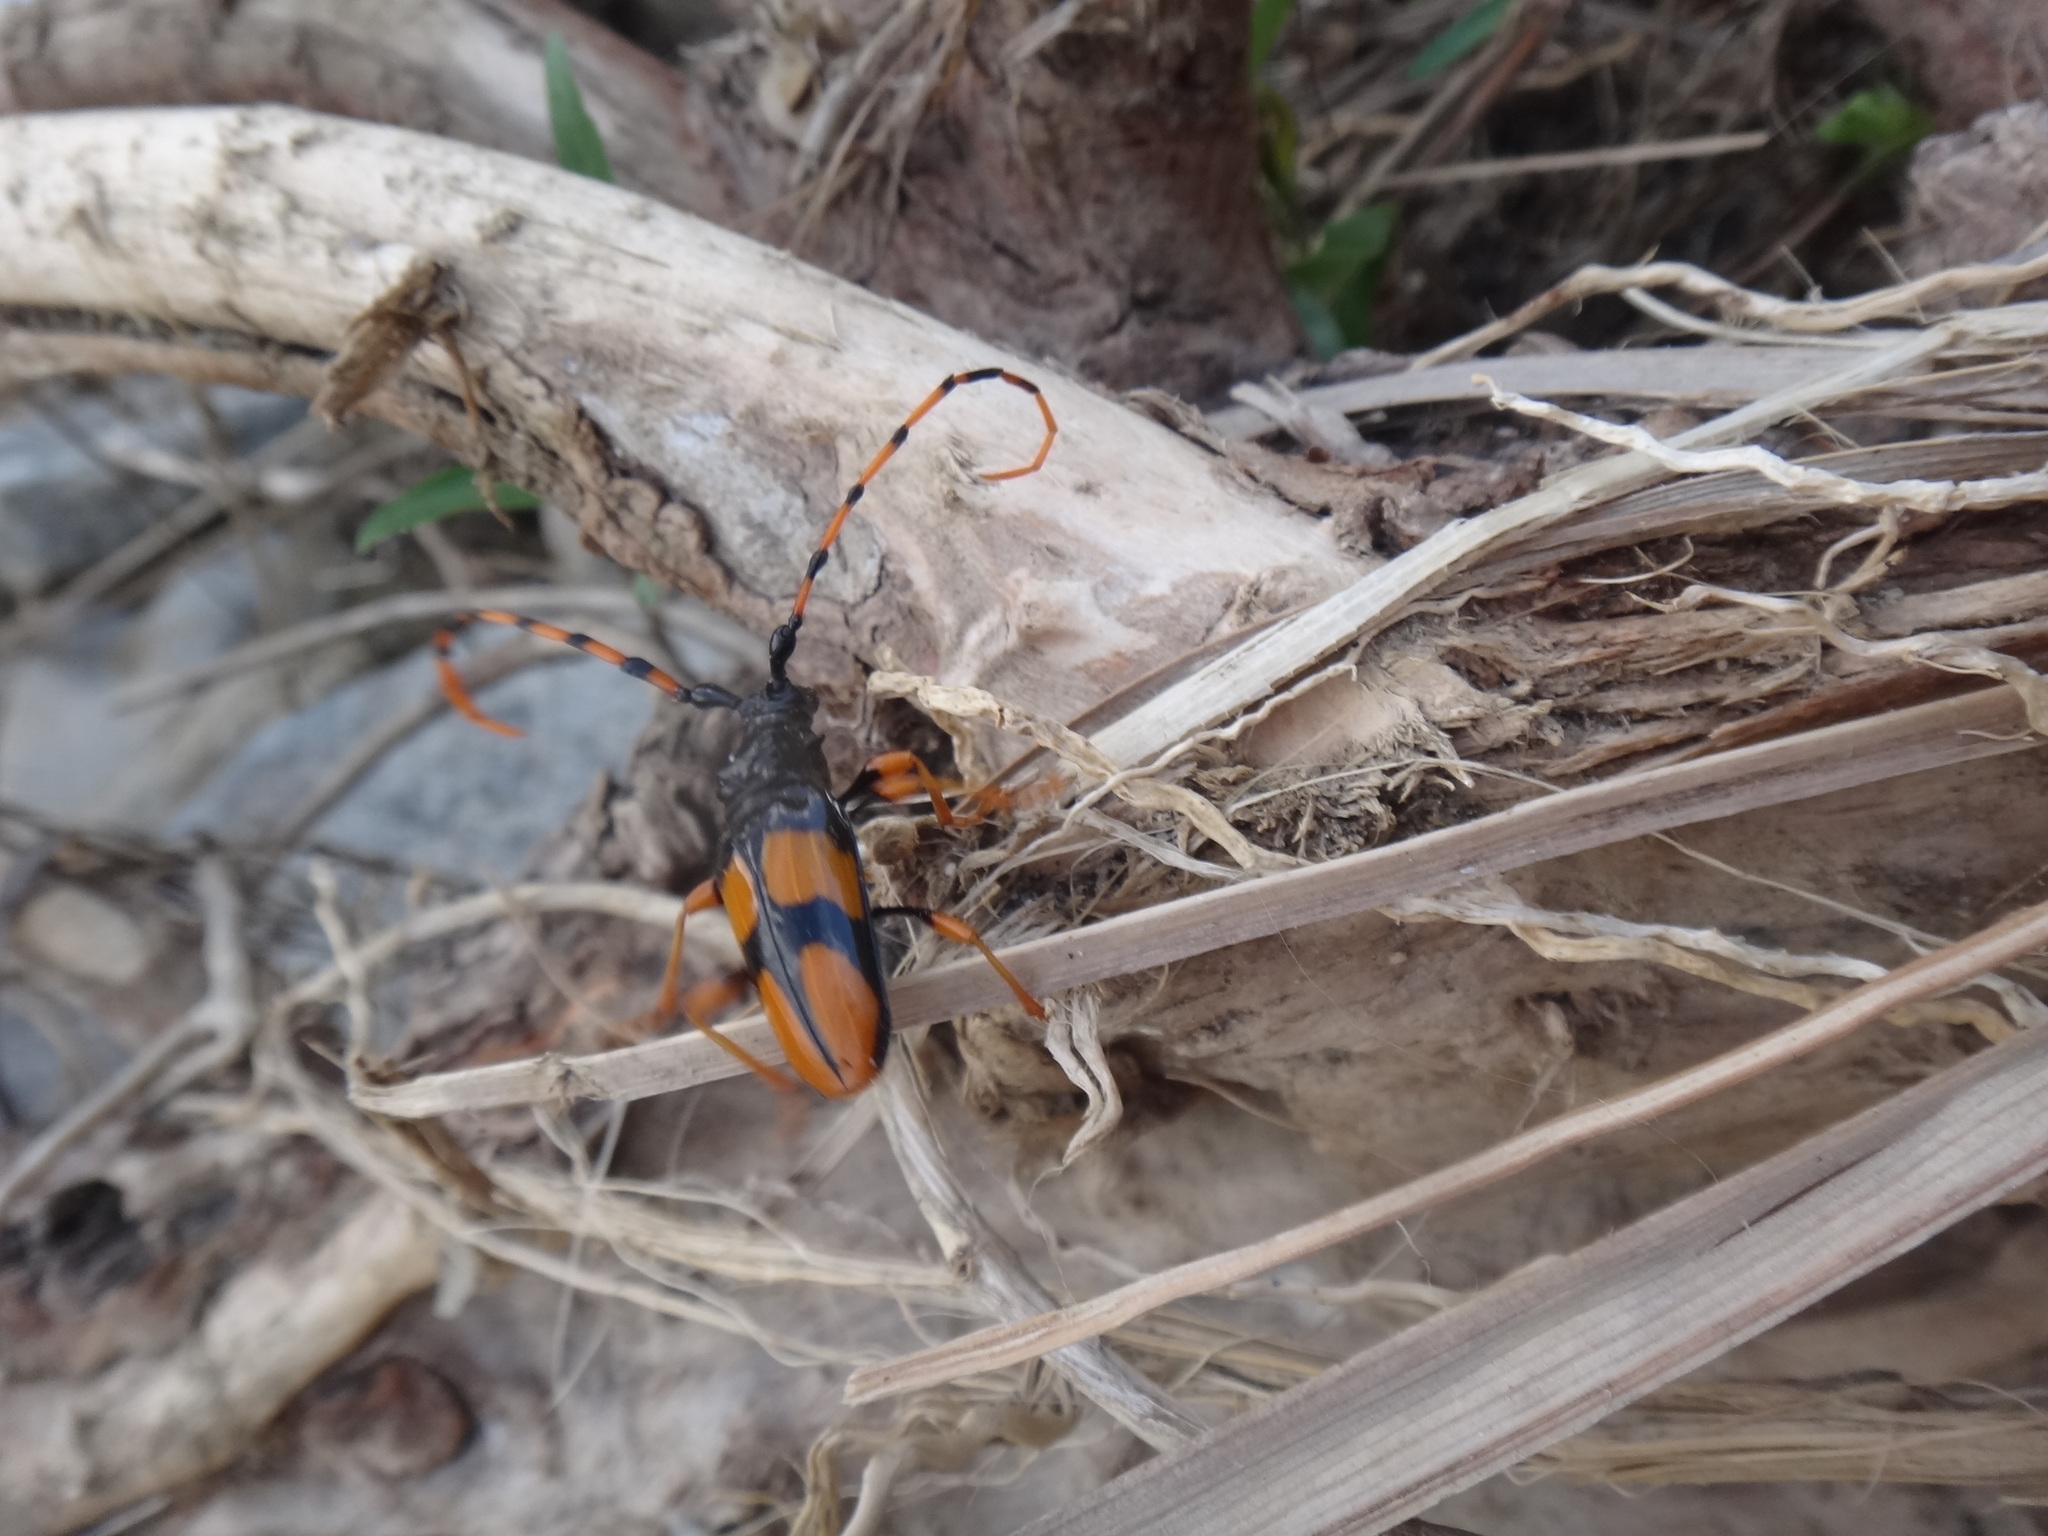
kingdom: Animalia
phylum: Arthropoda
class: Insecta
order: Coleoptera
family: Cerambycidae
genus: Trachyderes
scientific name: Trachyderes mandibularis
